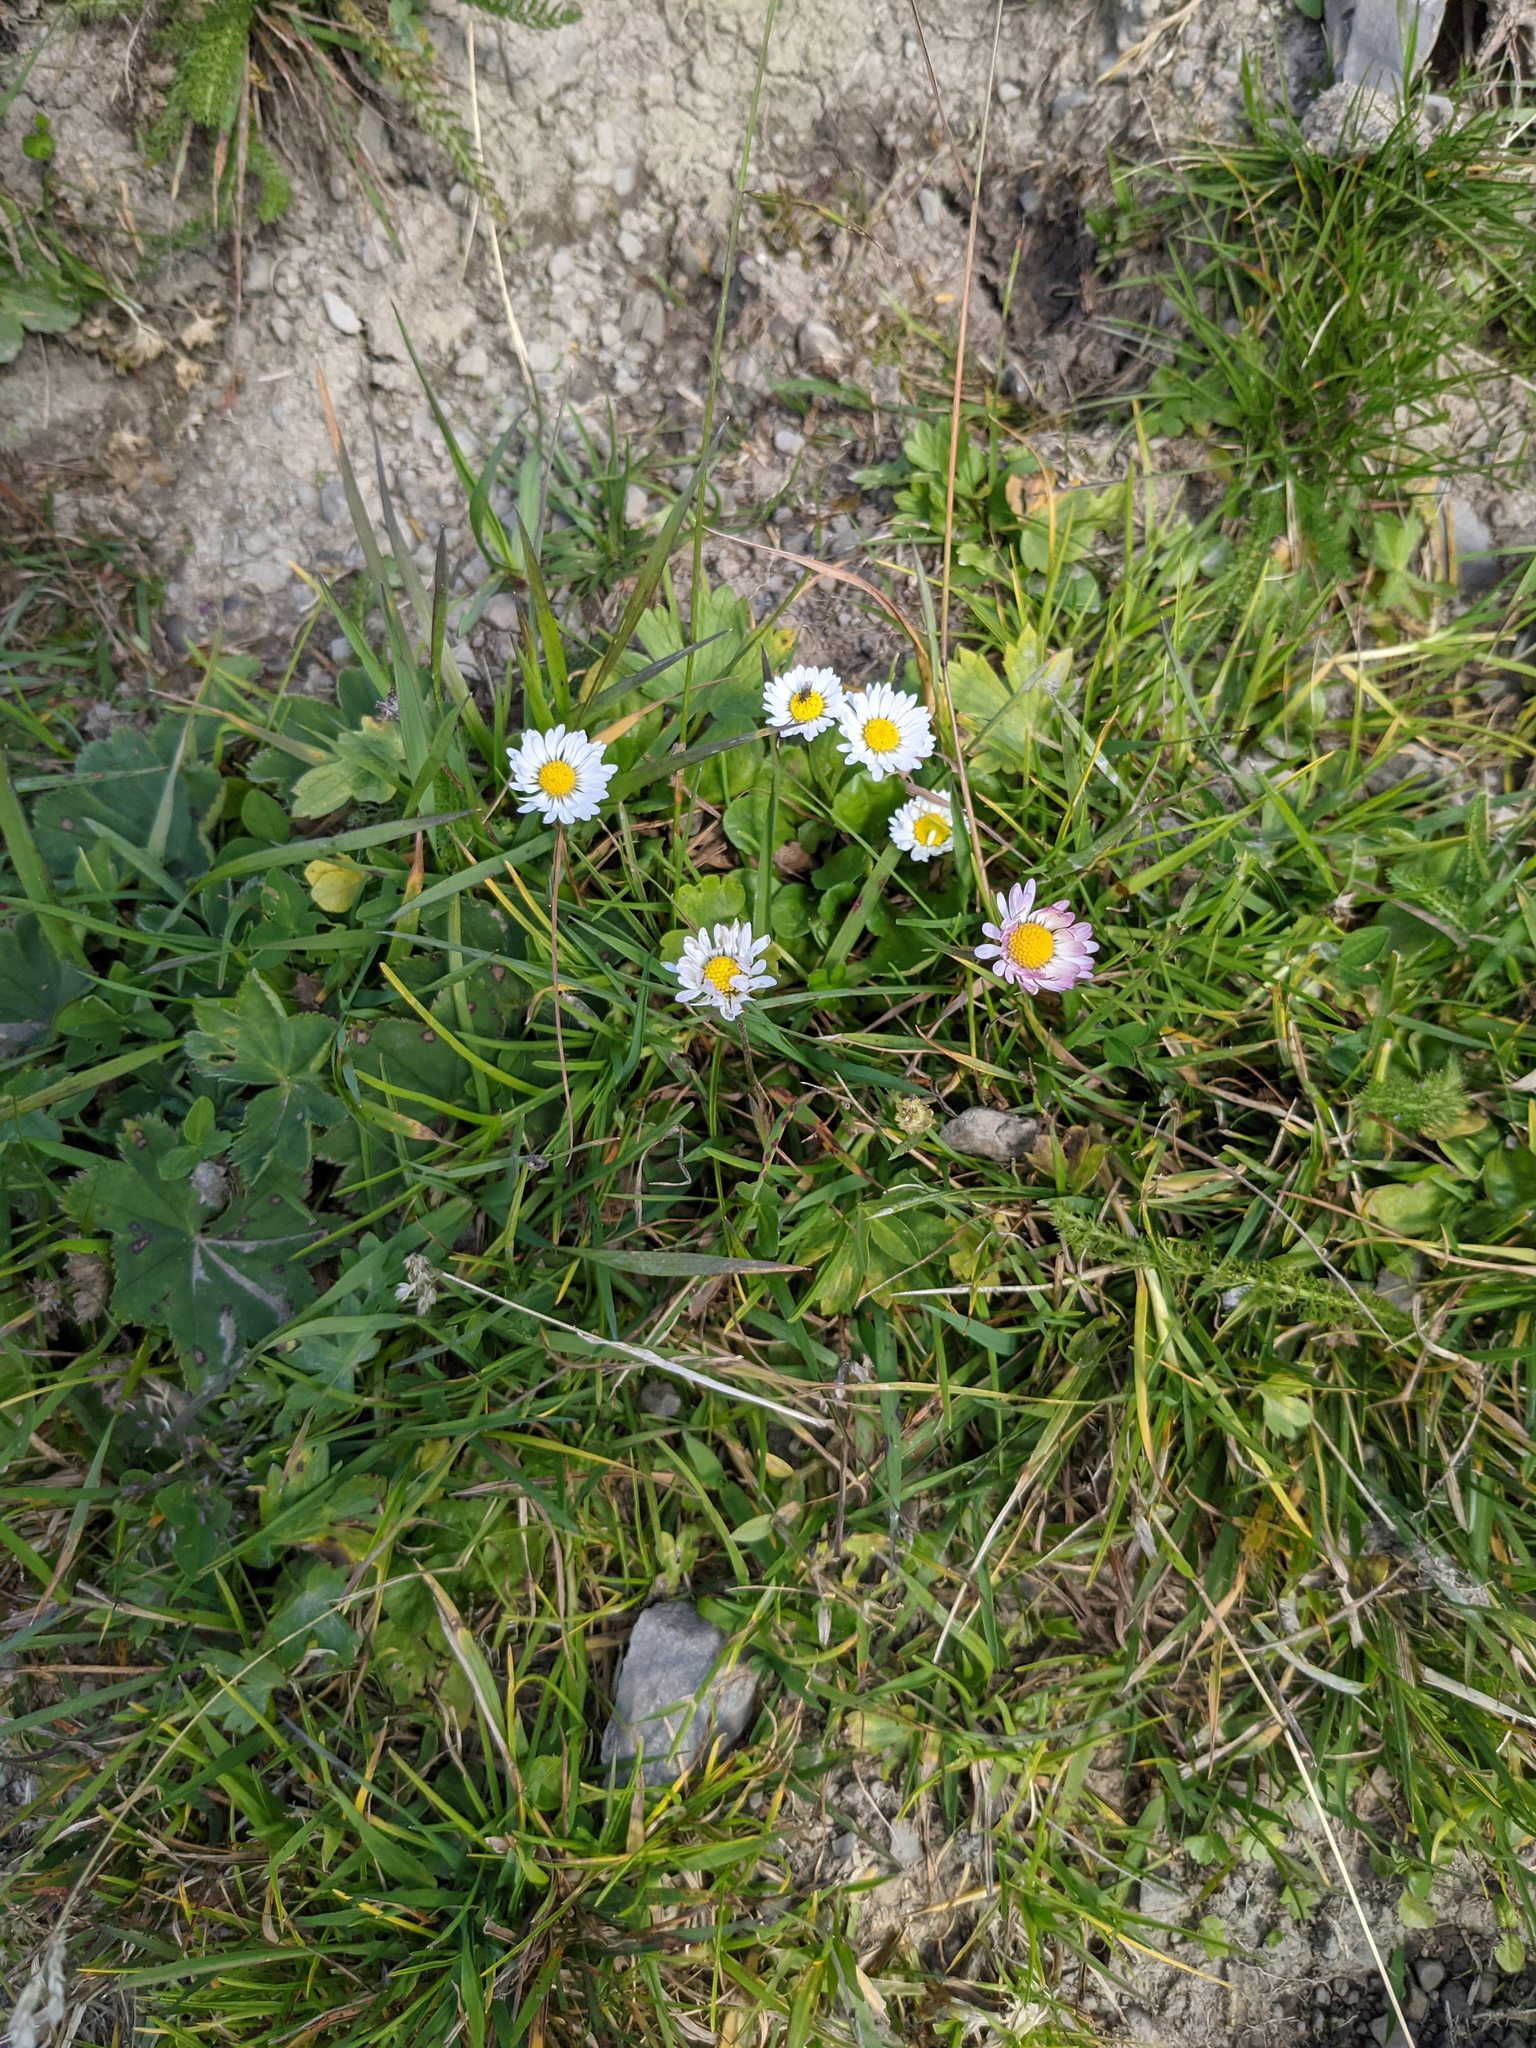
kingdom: Plantae
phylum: Tracheophyta
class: Magnoliopsida
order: Asterales
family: Asteraceae
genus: Bellis
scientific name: Bellis perennis
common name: Lawndaisy
